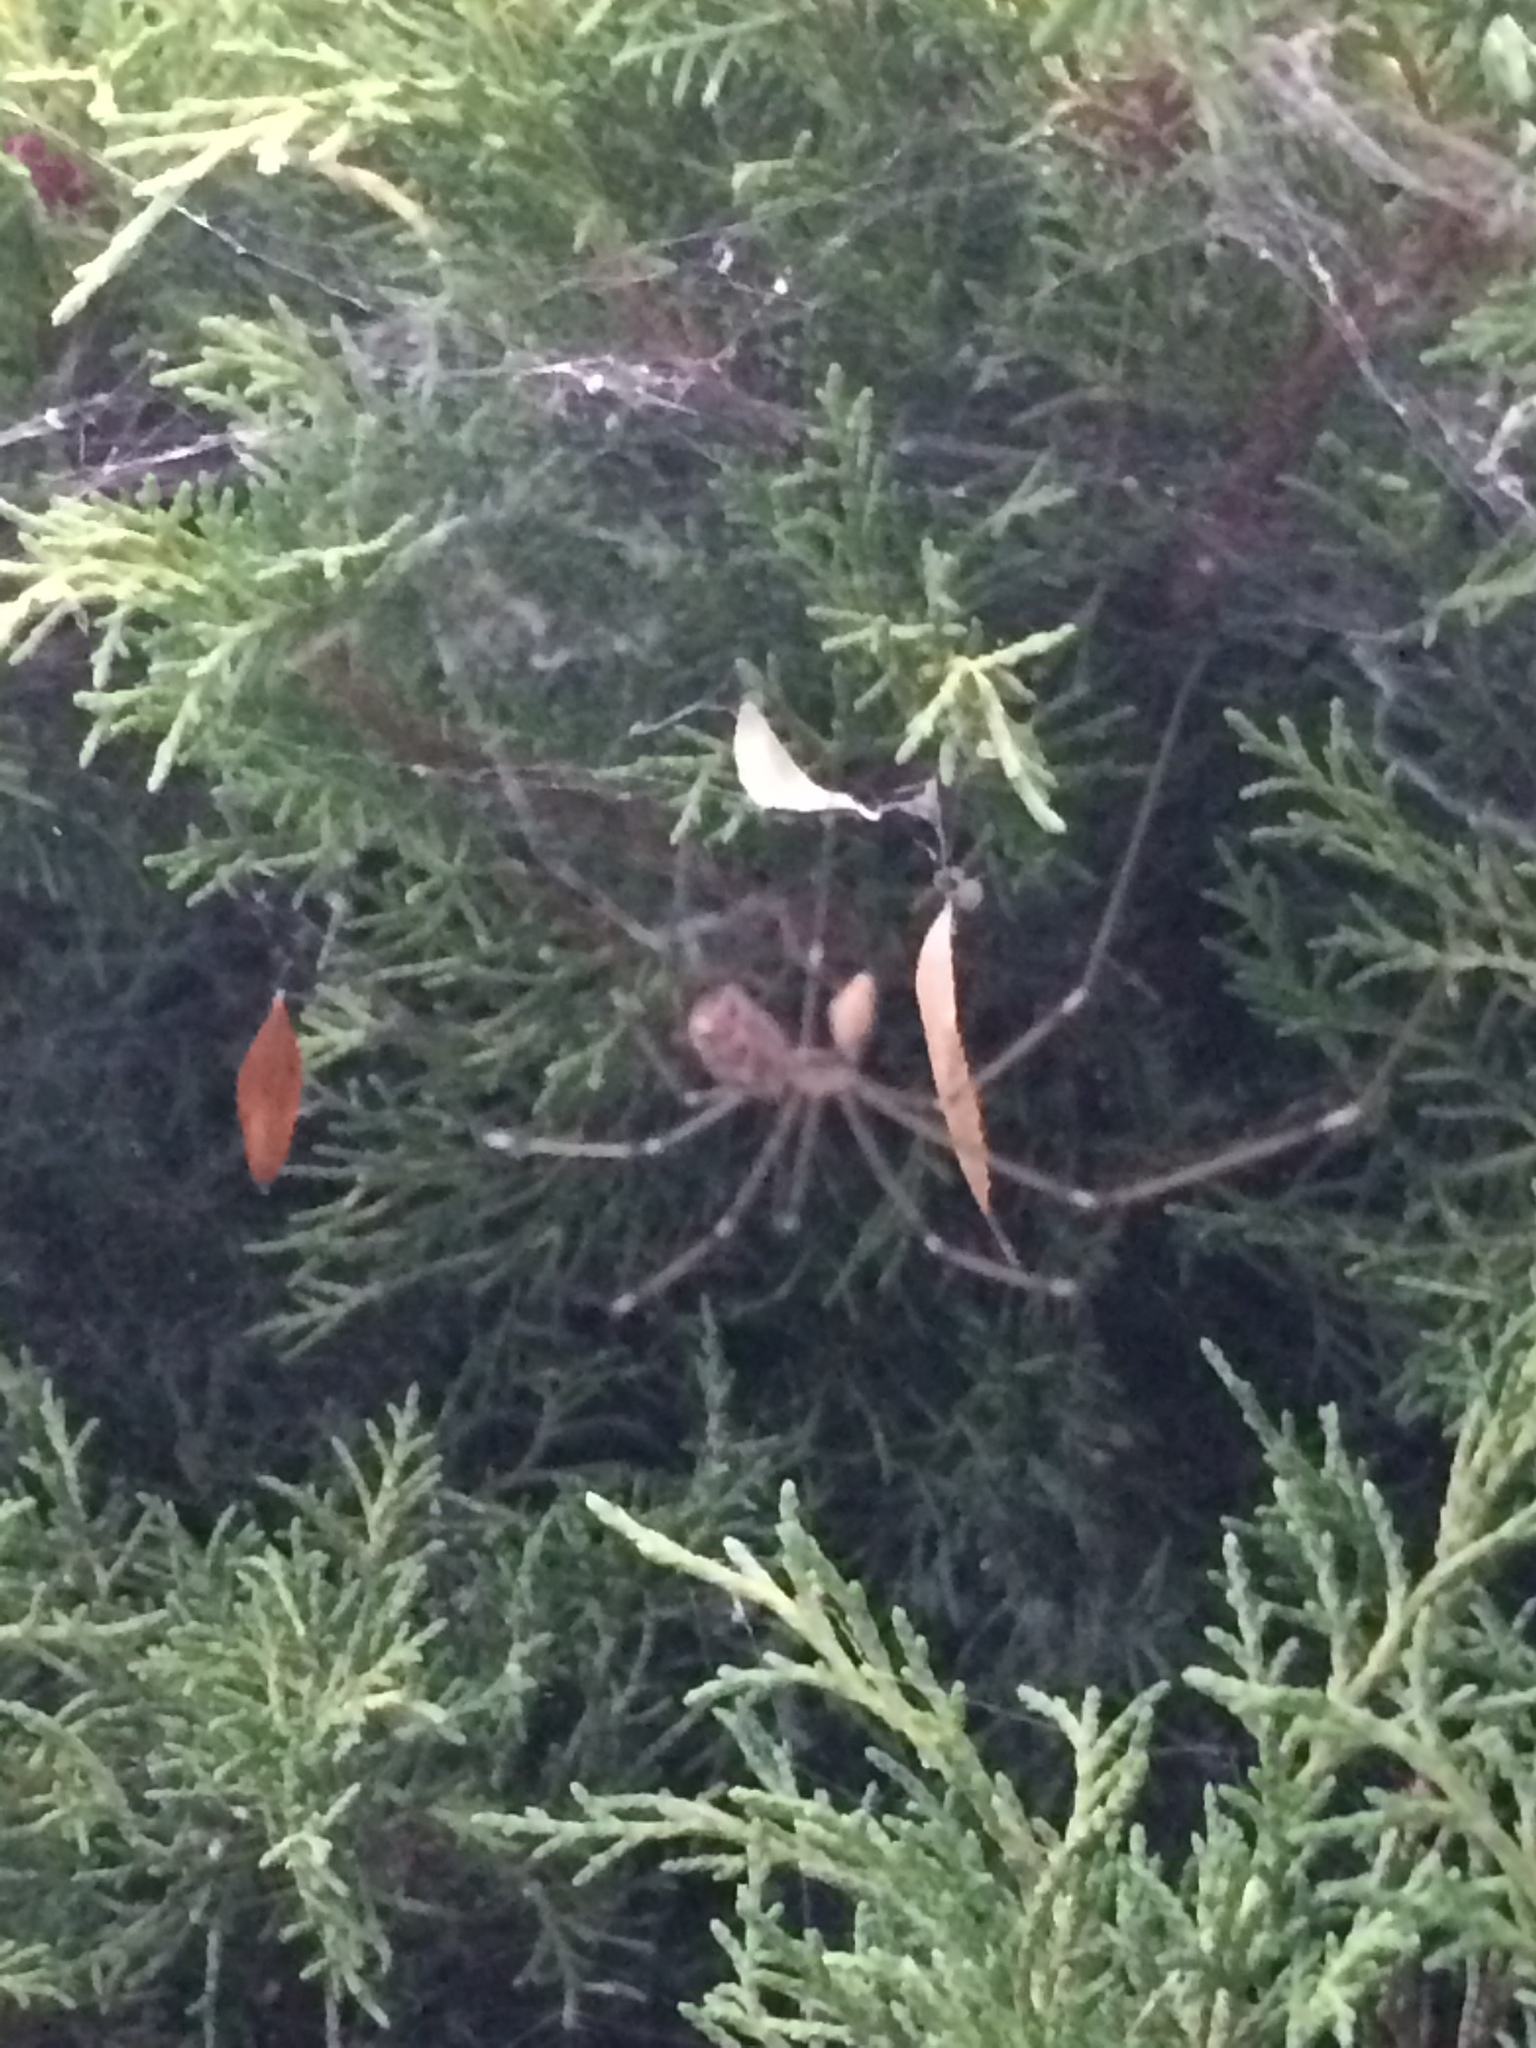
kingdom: Animalia
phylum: Arthropoda
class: Arachnida
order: Araneae
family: Pholcidae
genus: Holocnemus
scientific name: Holocnemus pluchei
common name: Marbled cellar spider
